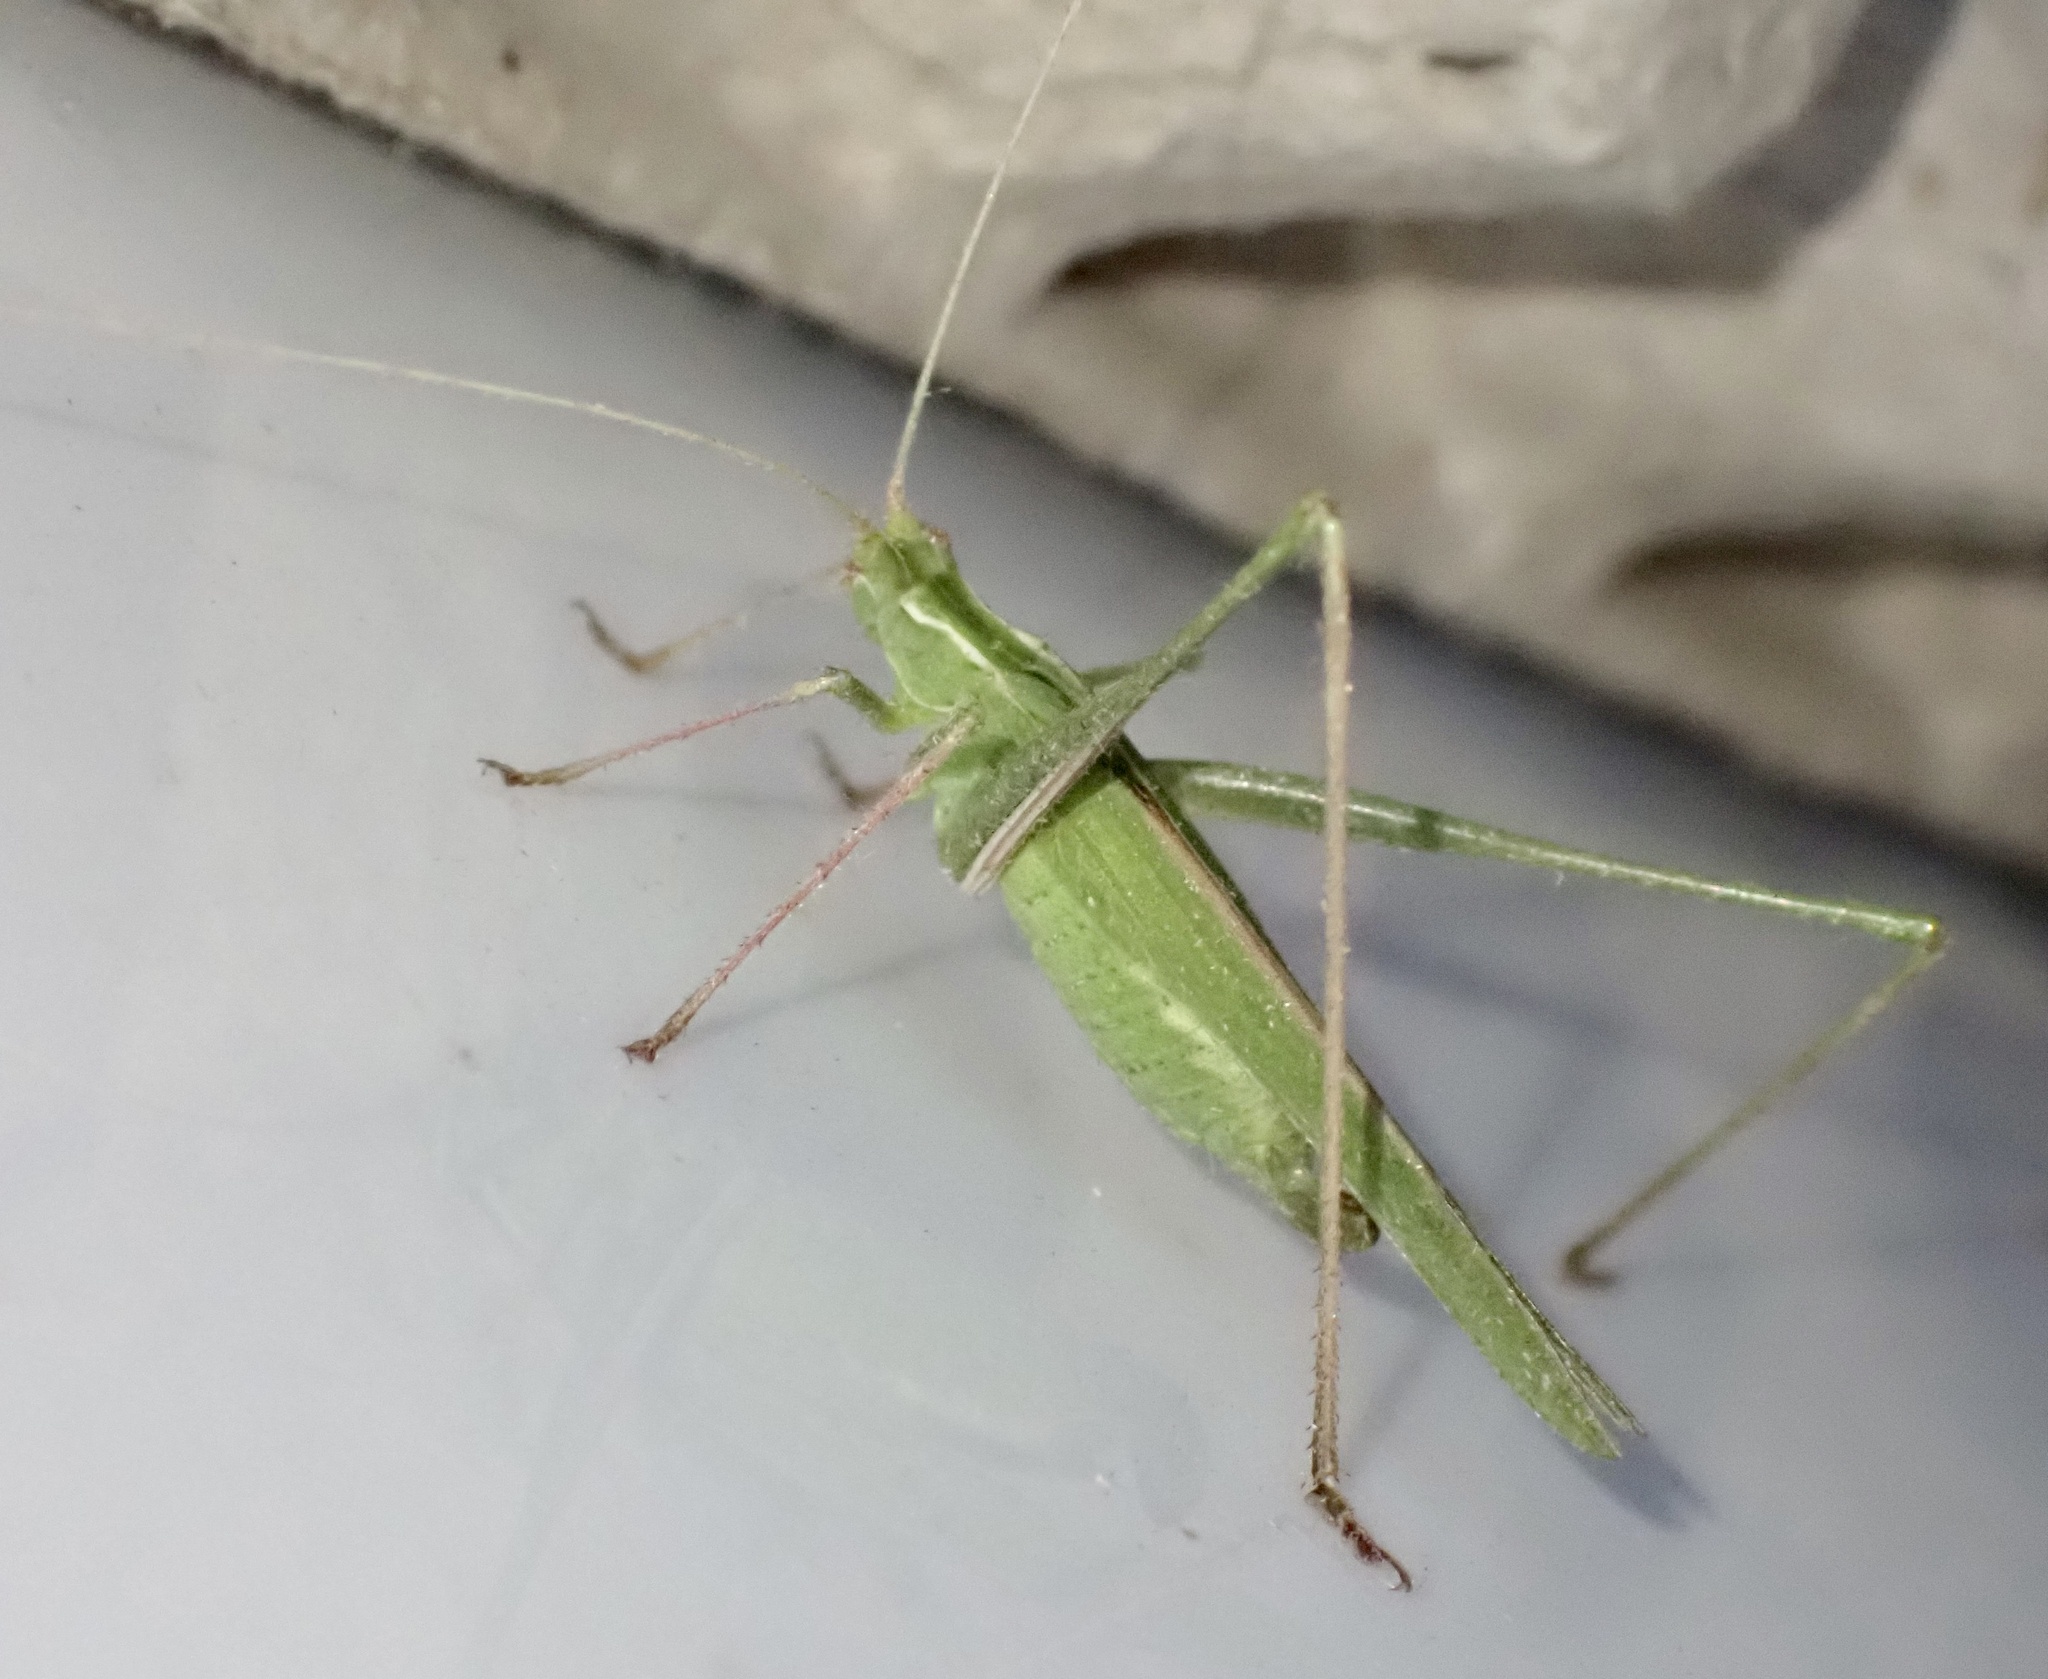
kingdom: Animalia
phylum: Arthropoda
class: Insecta
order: Orthoptera
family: Tettigoniidae
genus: Tylopsis
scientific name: Tylopsis lilifolia
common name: Lily bush-cricket
